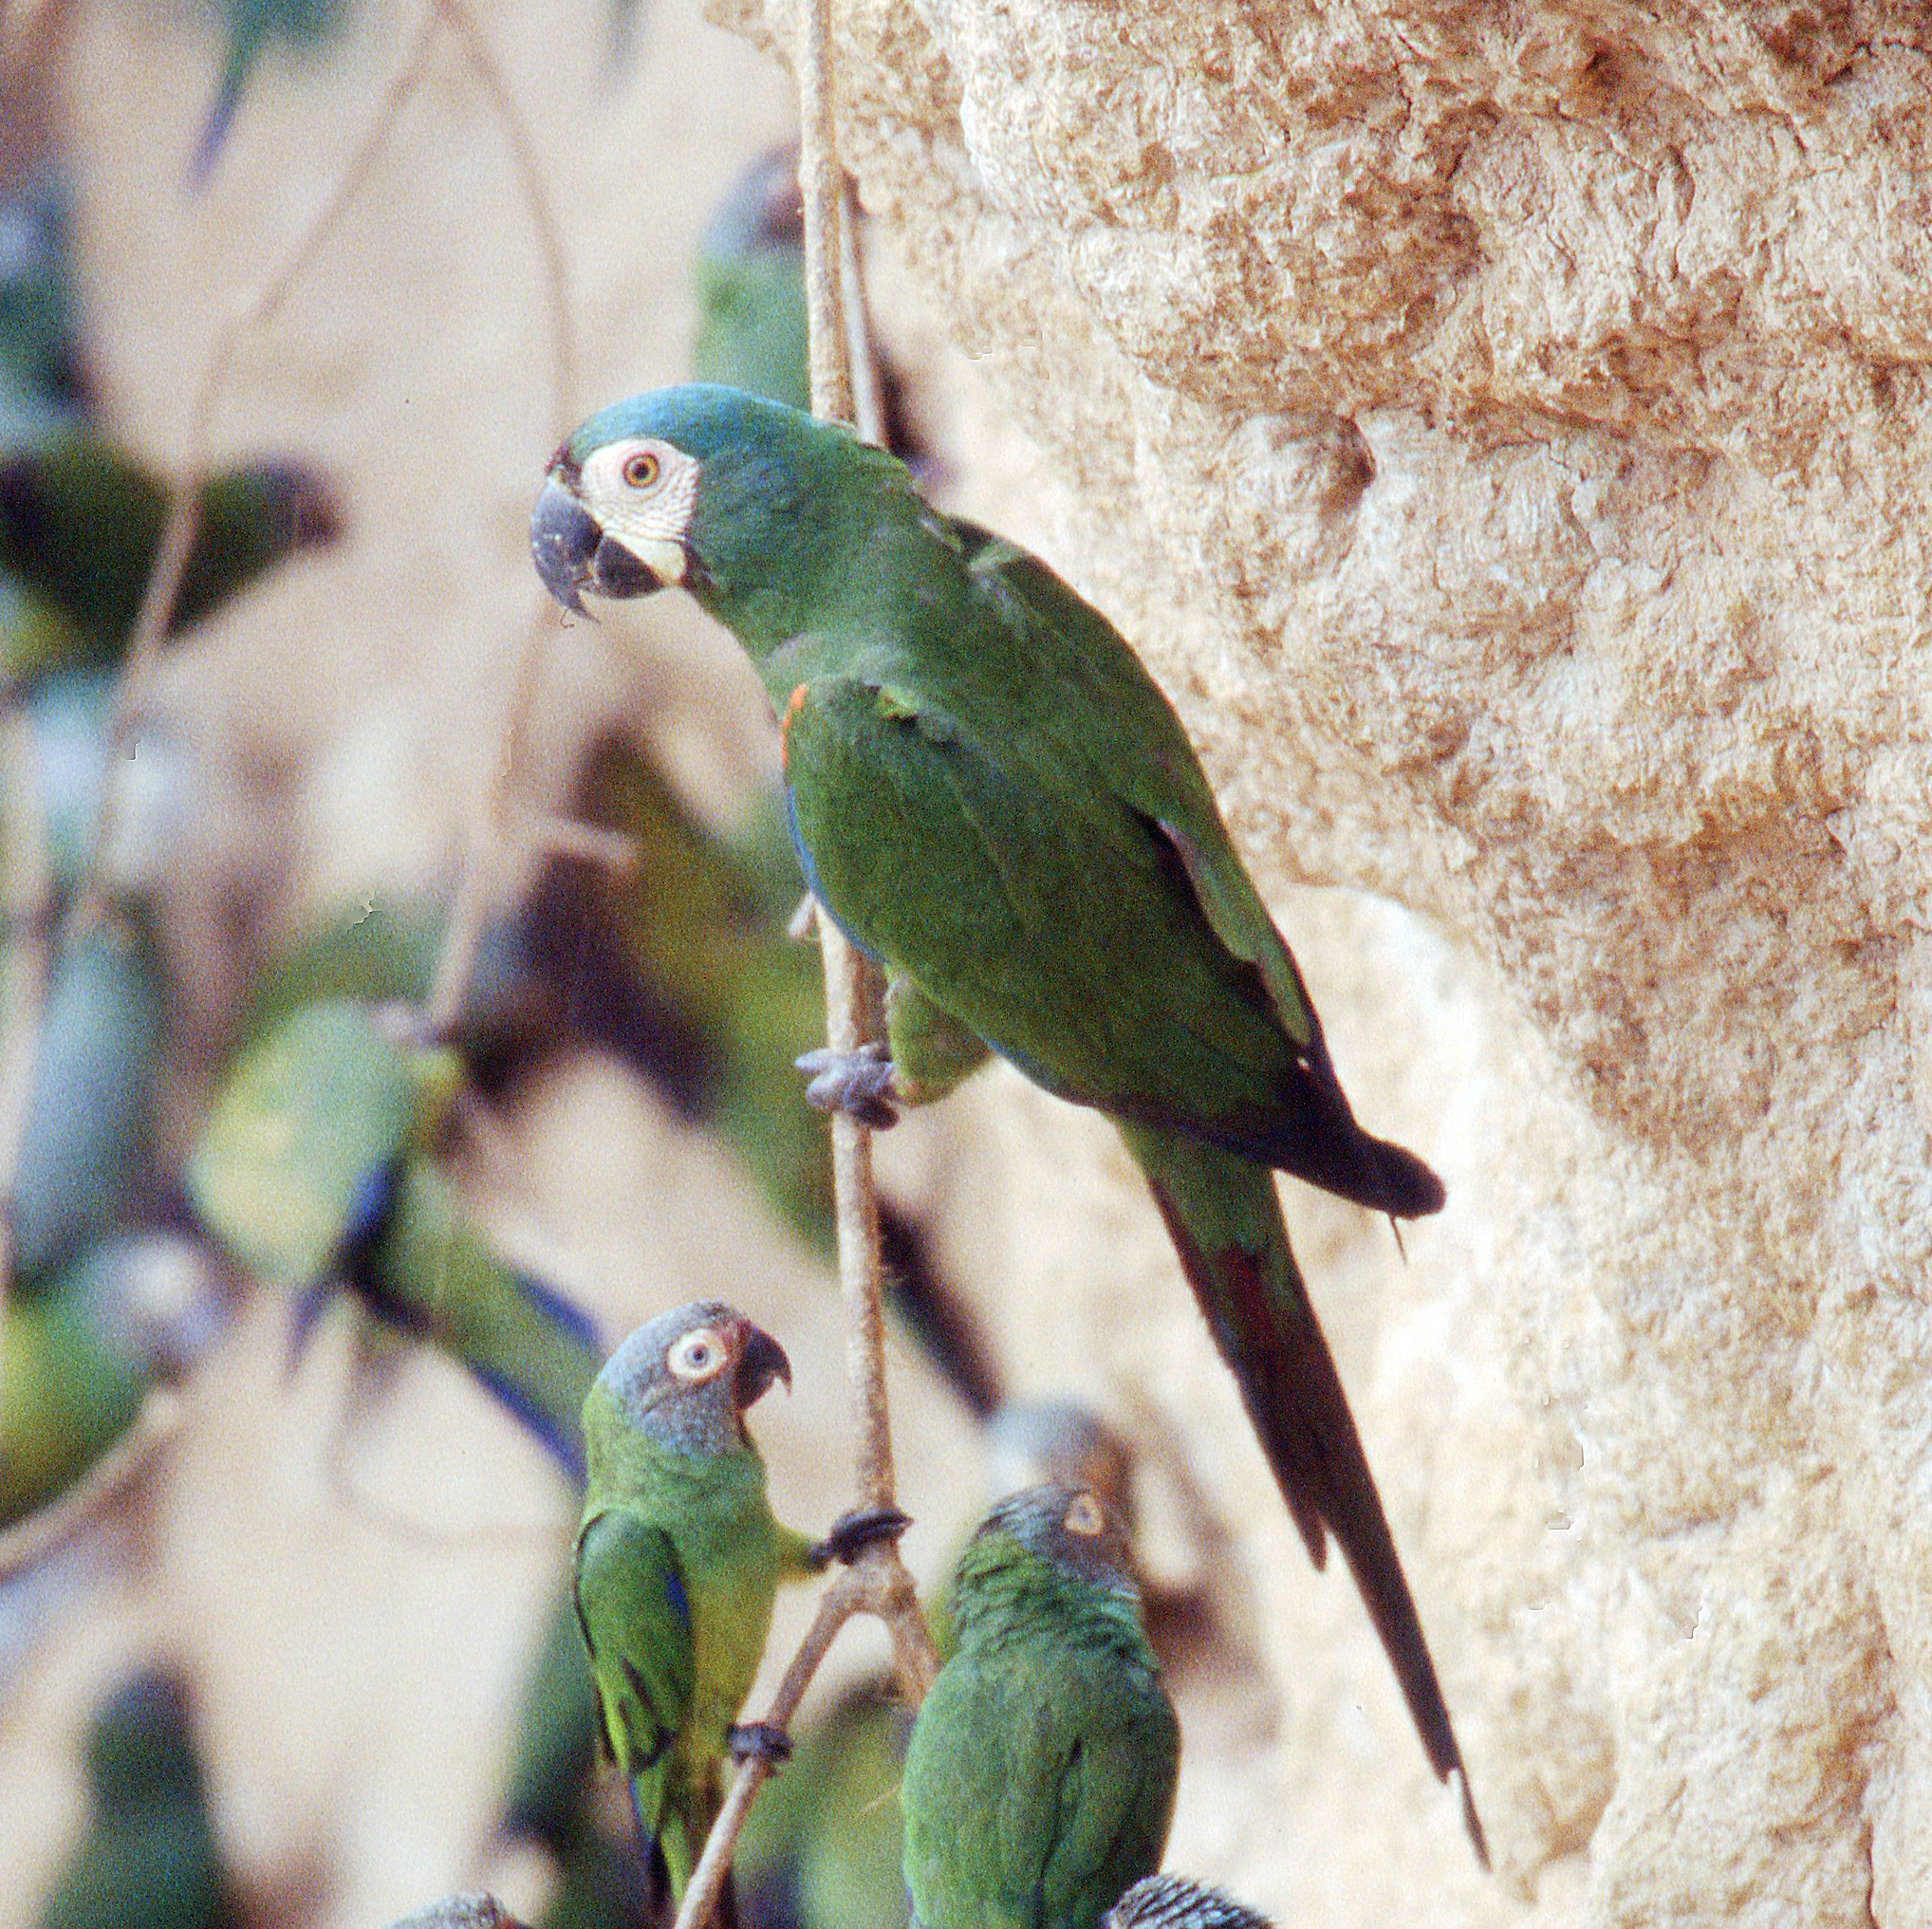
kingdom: Animalia
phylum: Chordata
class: Aves
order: Psittaciformes
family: Psittacidae
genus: Ara
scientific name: Ara severus
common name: Chestnut-fronted macaw
